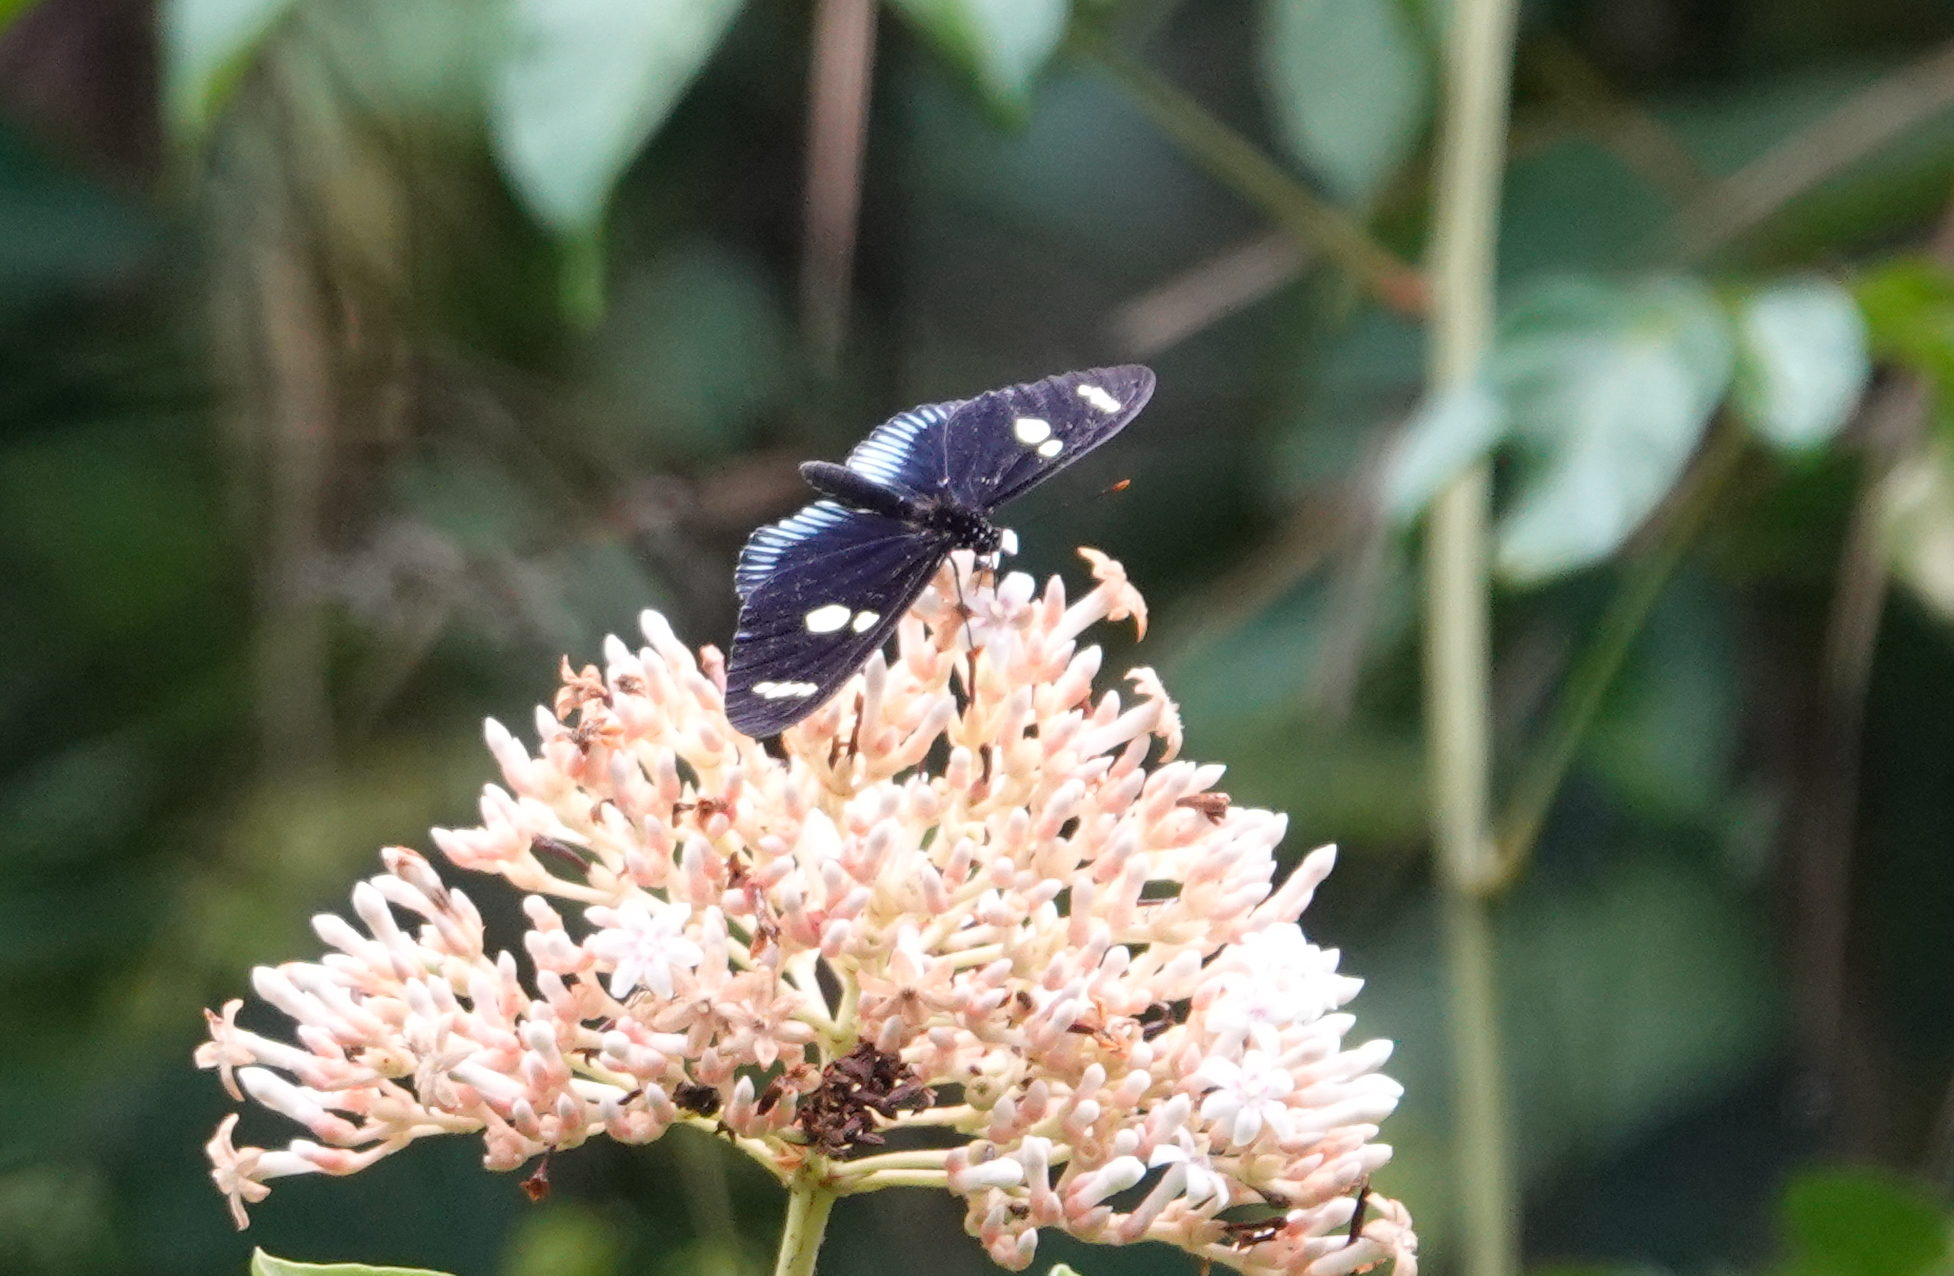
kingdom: Animalia
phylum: Arthropoda
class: Insecta
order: Lepidoptera
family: Nymphalidae
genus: Heliconius
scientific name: Heliconius Neruda metharme
